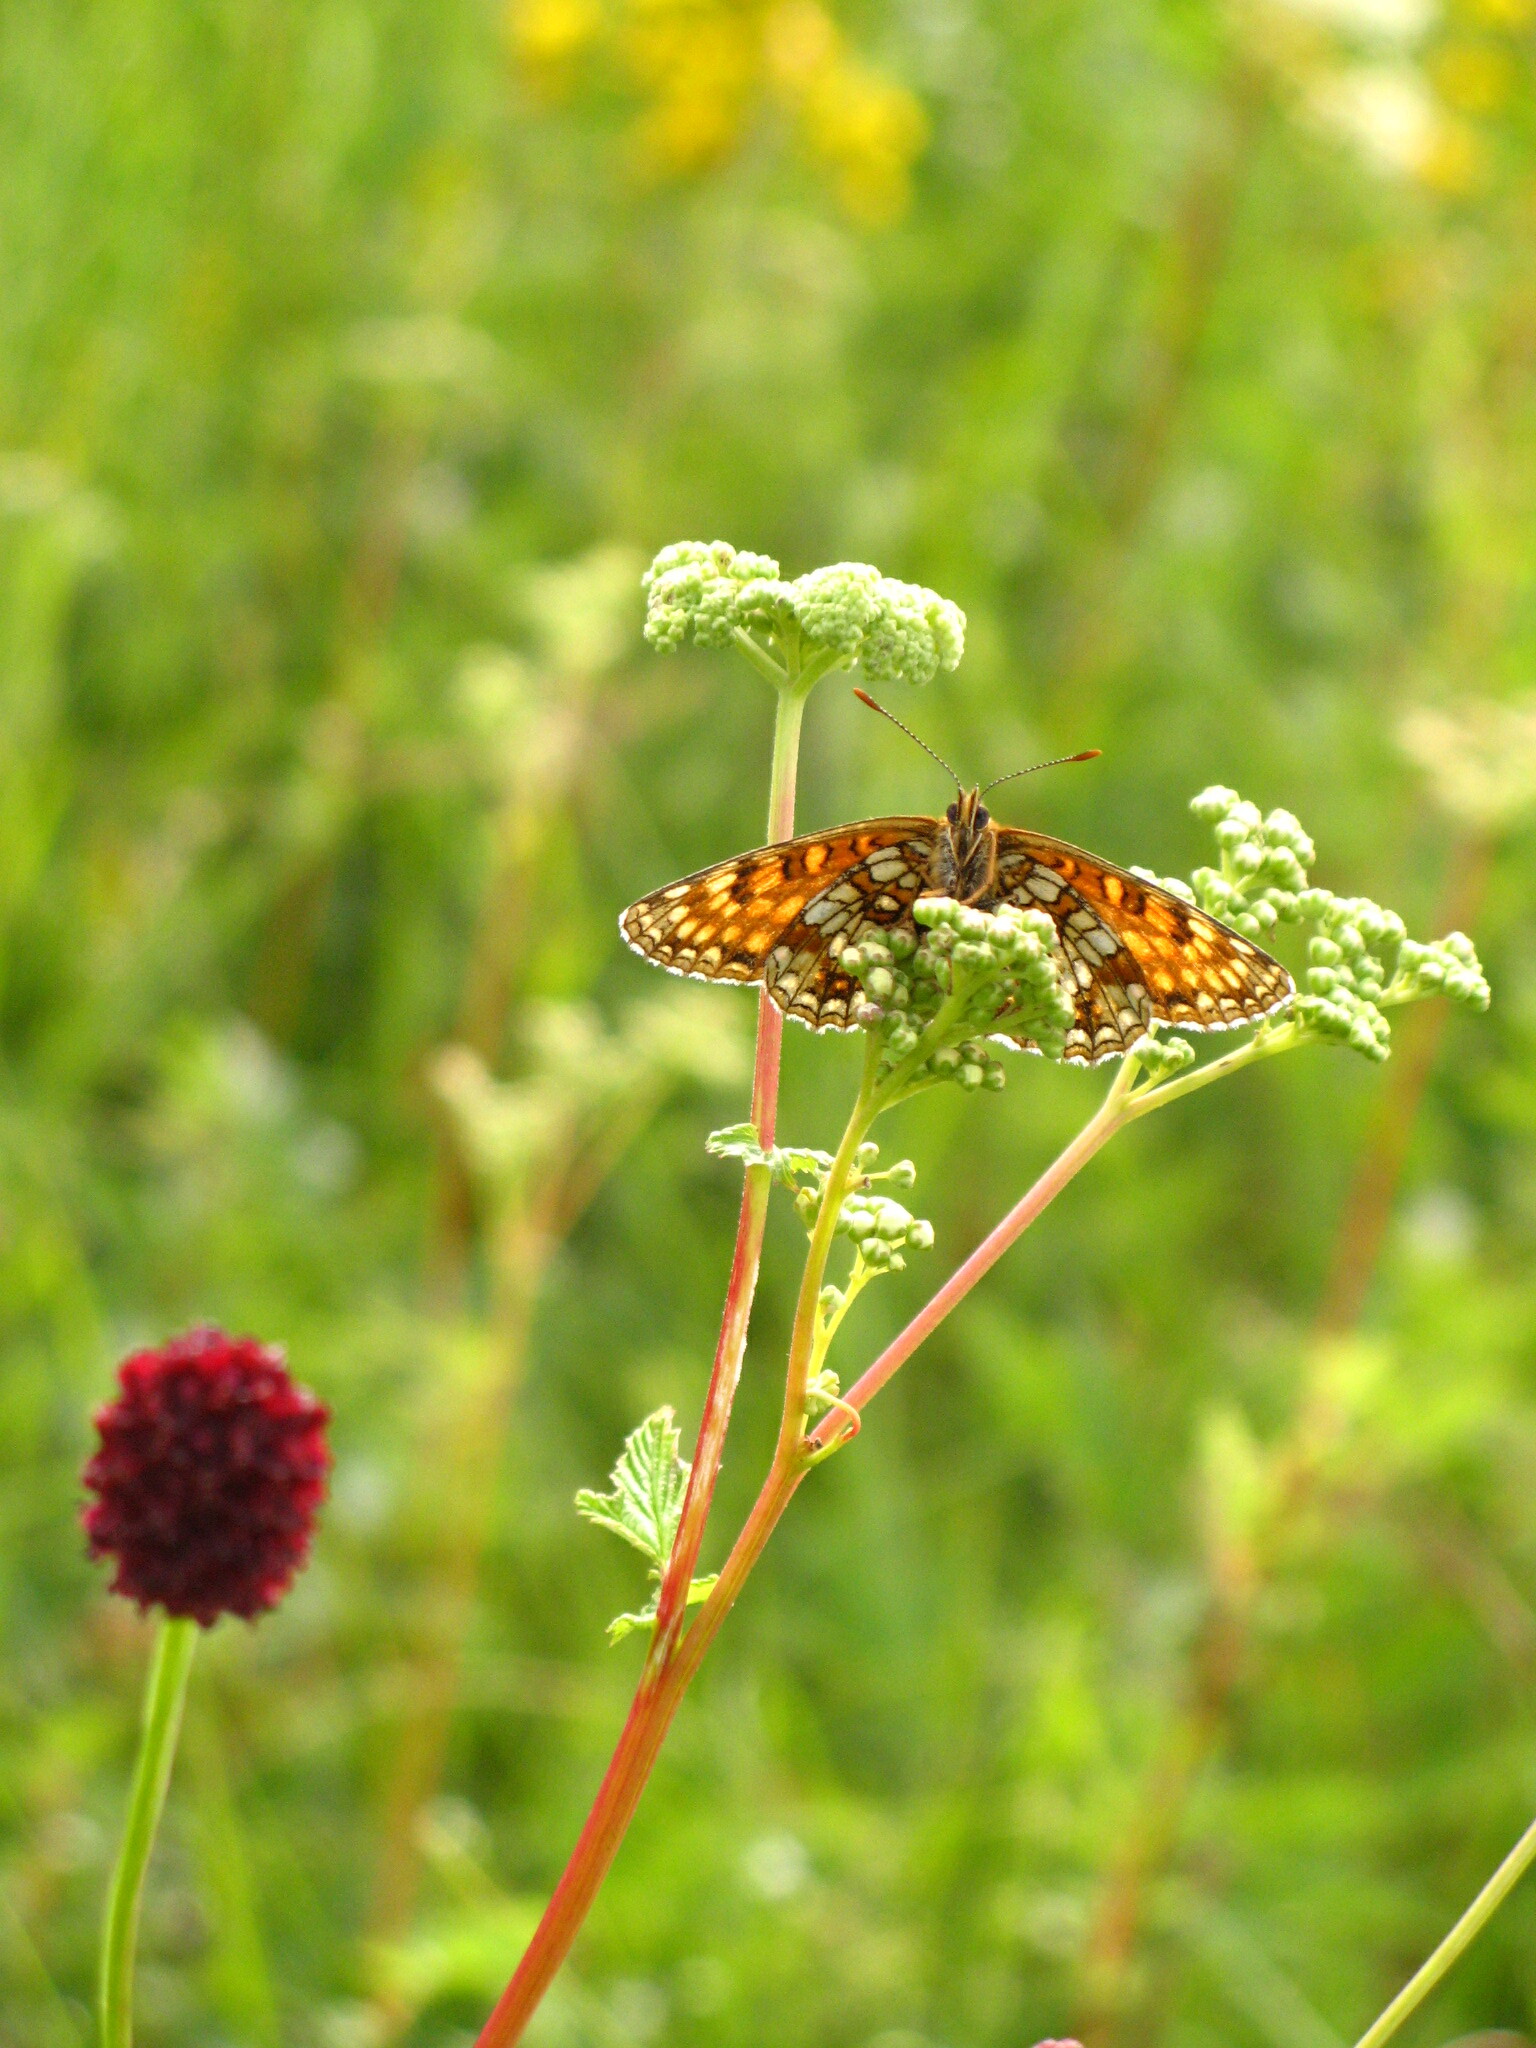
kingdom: Animalia
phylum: Arthropoda
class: Insecta
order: Lepidoptera
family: Nymphalidae
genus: Melitaea
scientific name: Melitaea diamina
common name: False heath fritillary
